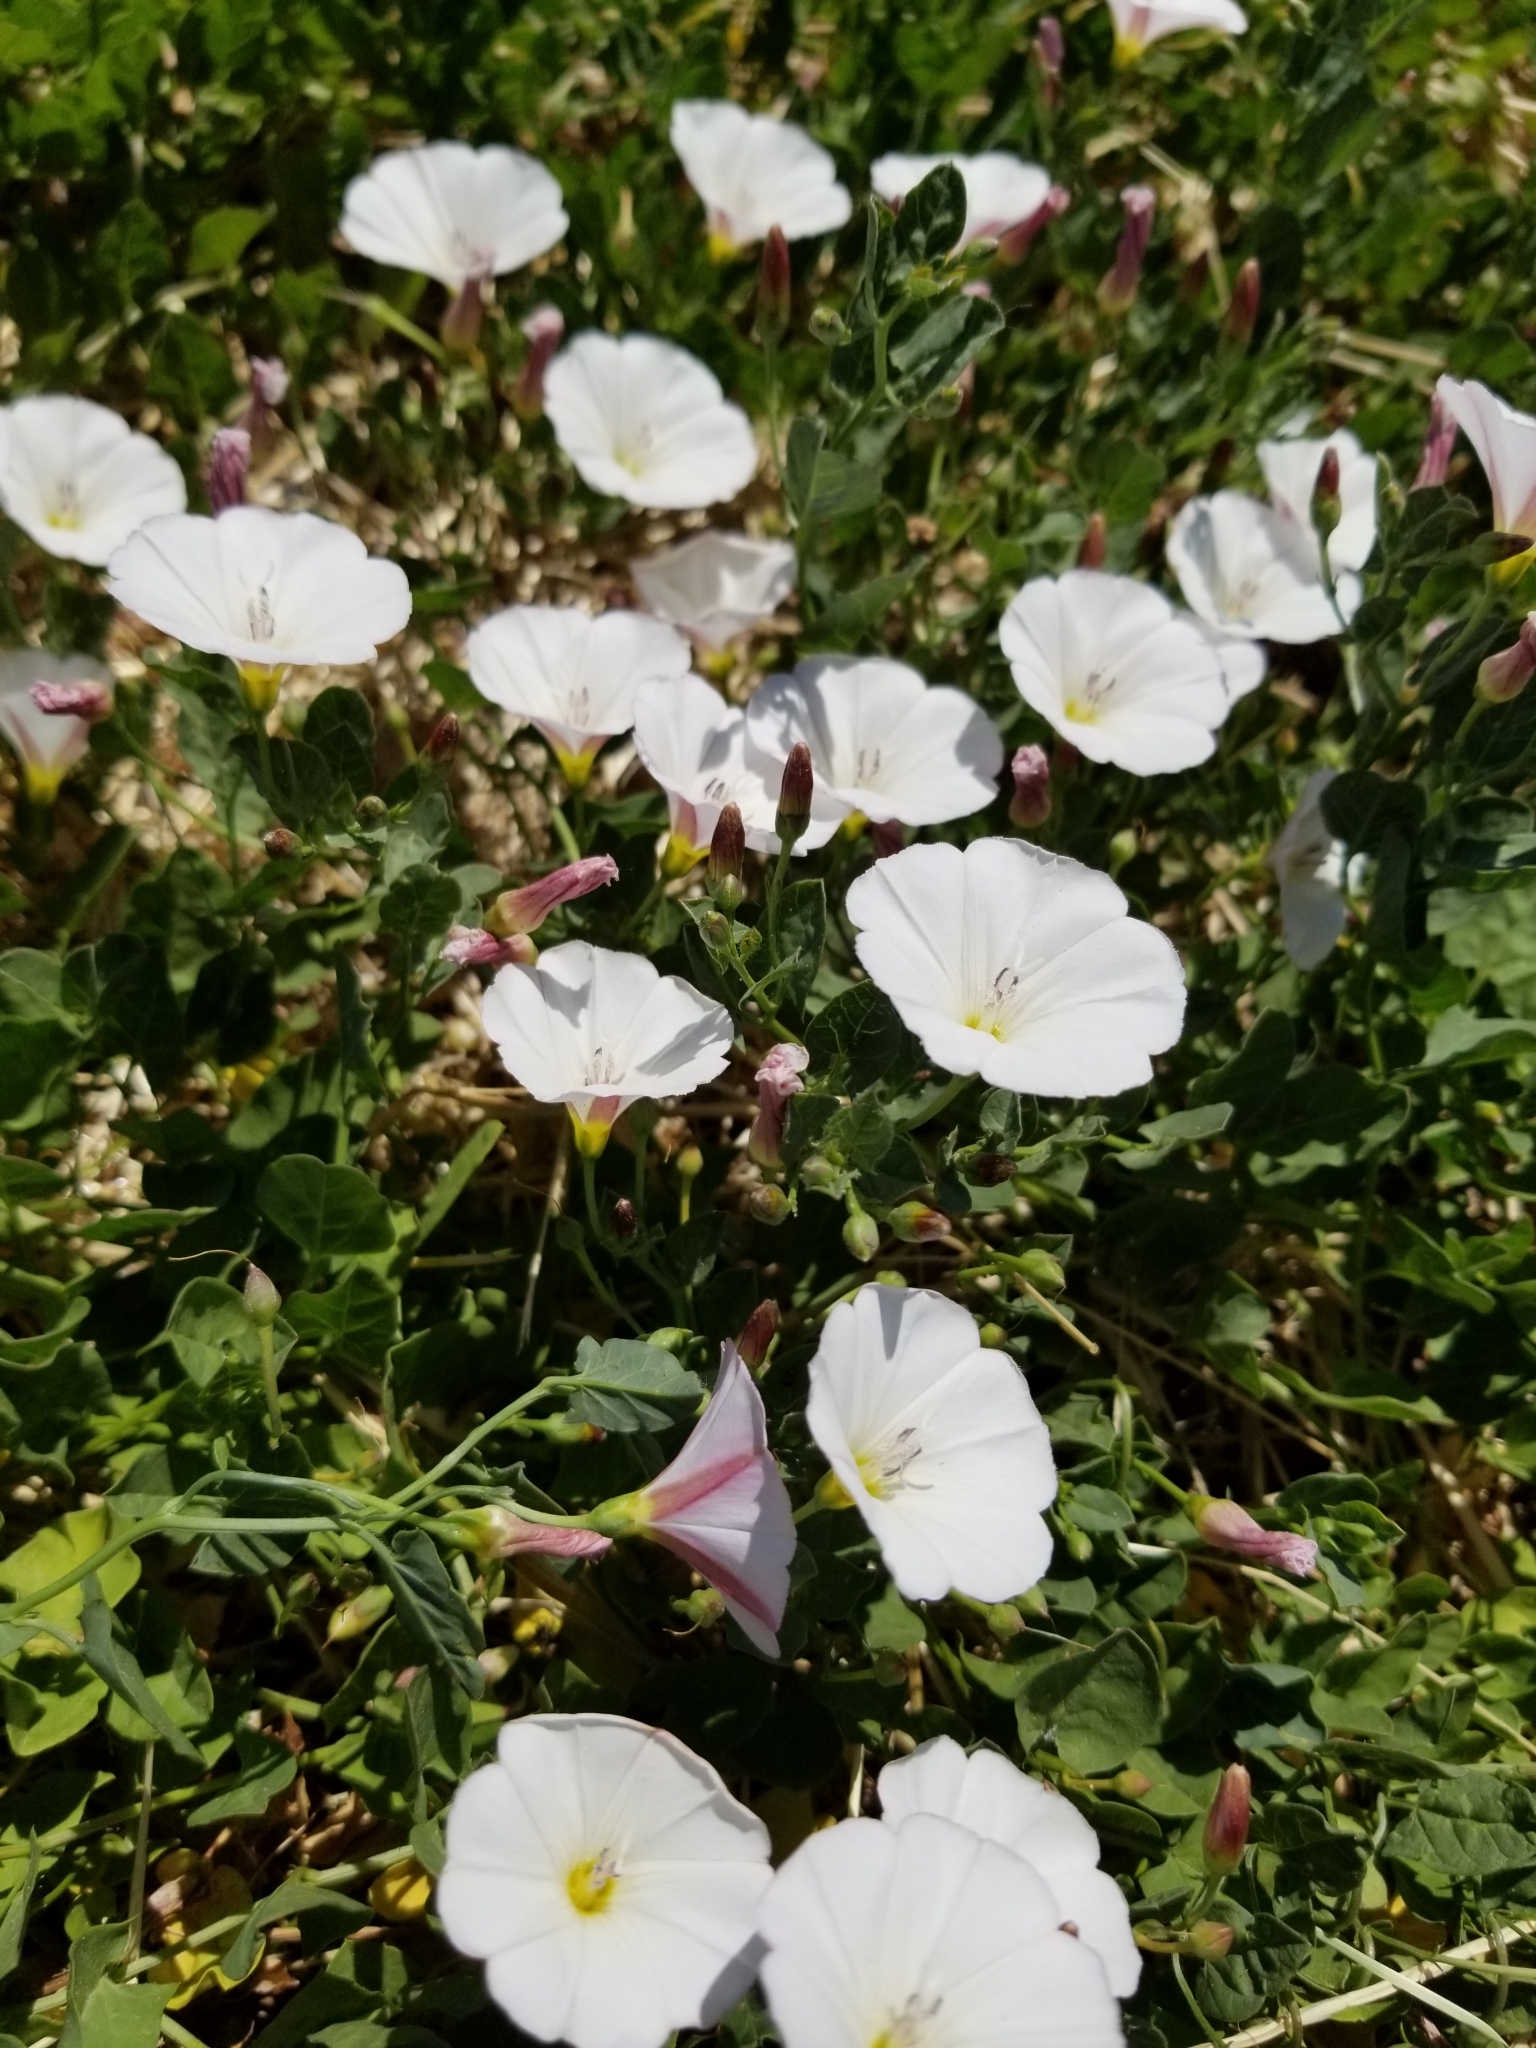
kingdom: Plantae
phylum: Tracheophyta
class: Magnoliopsida
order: Solanales
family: Convolvulaceae
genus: Convolvulus
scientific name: Convolvulus arvensis
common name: Field bindweed
